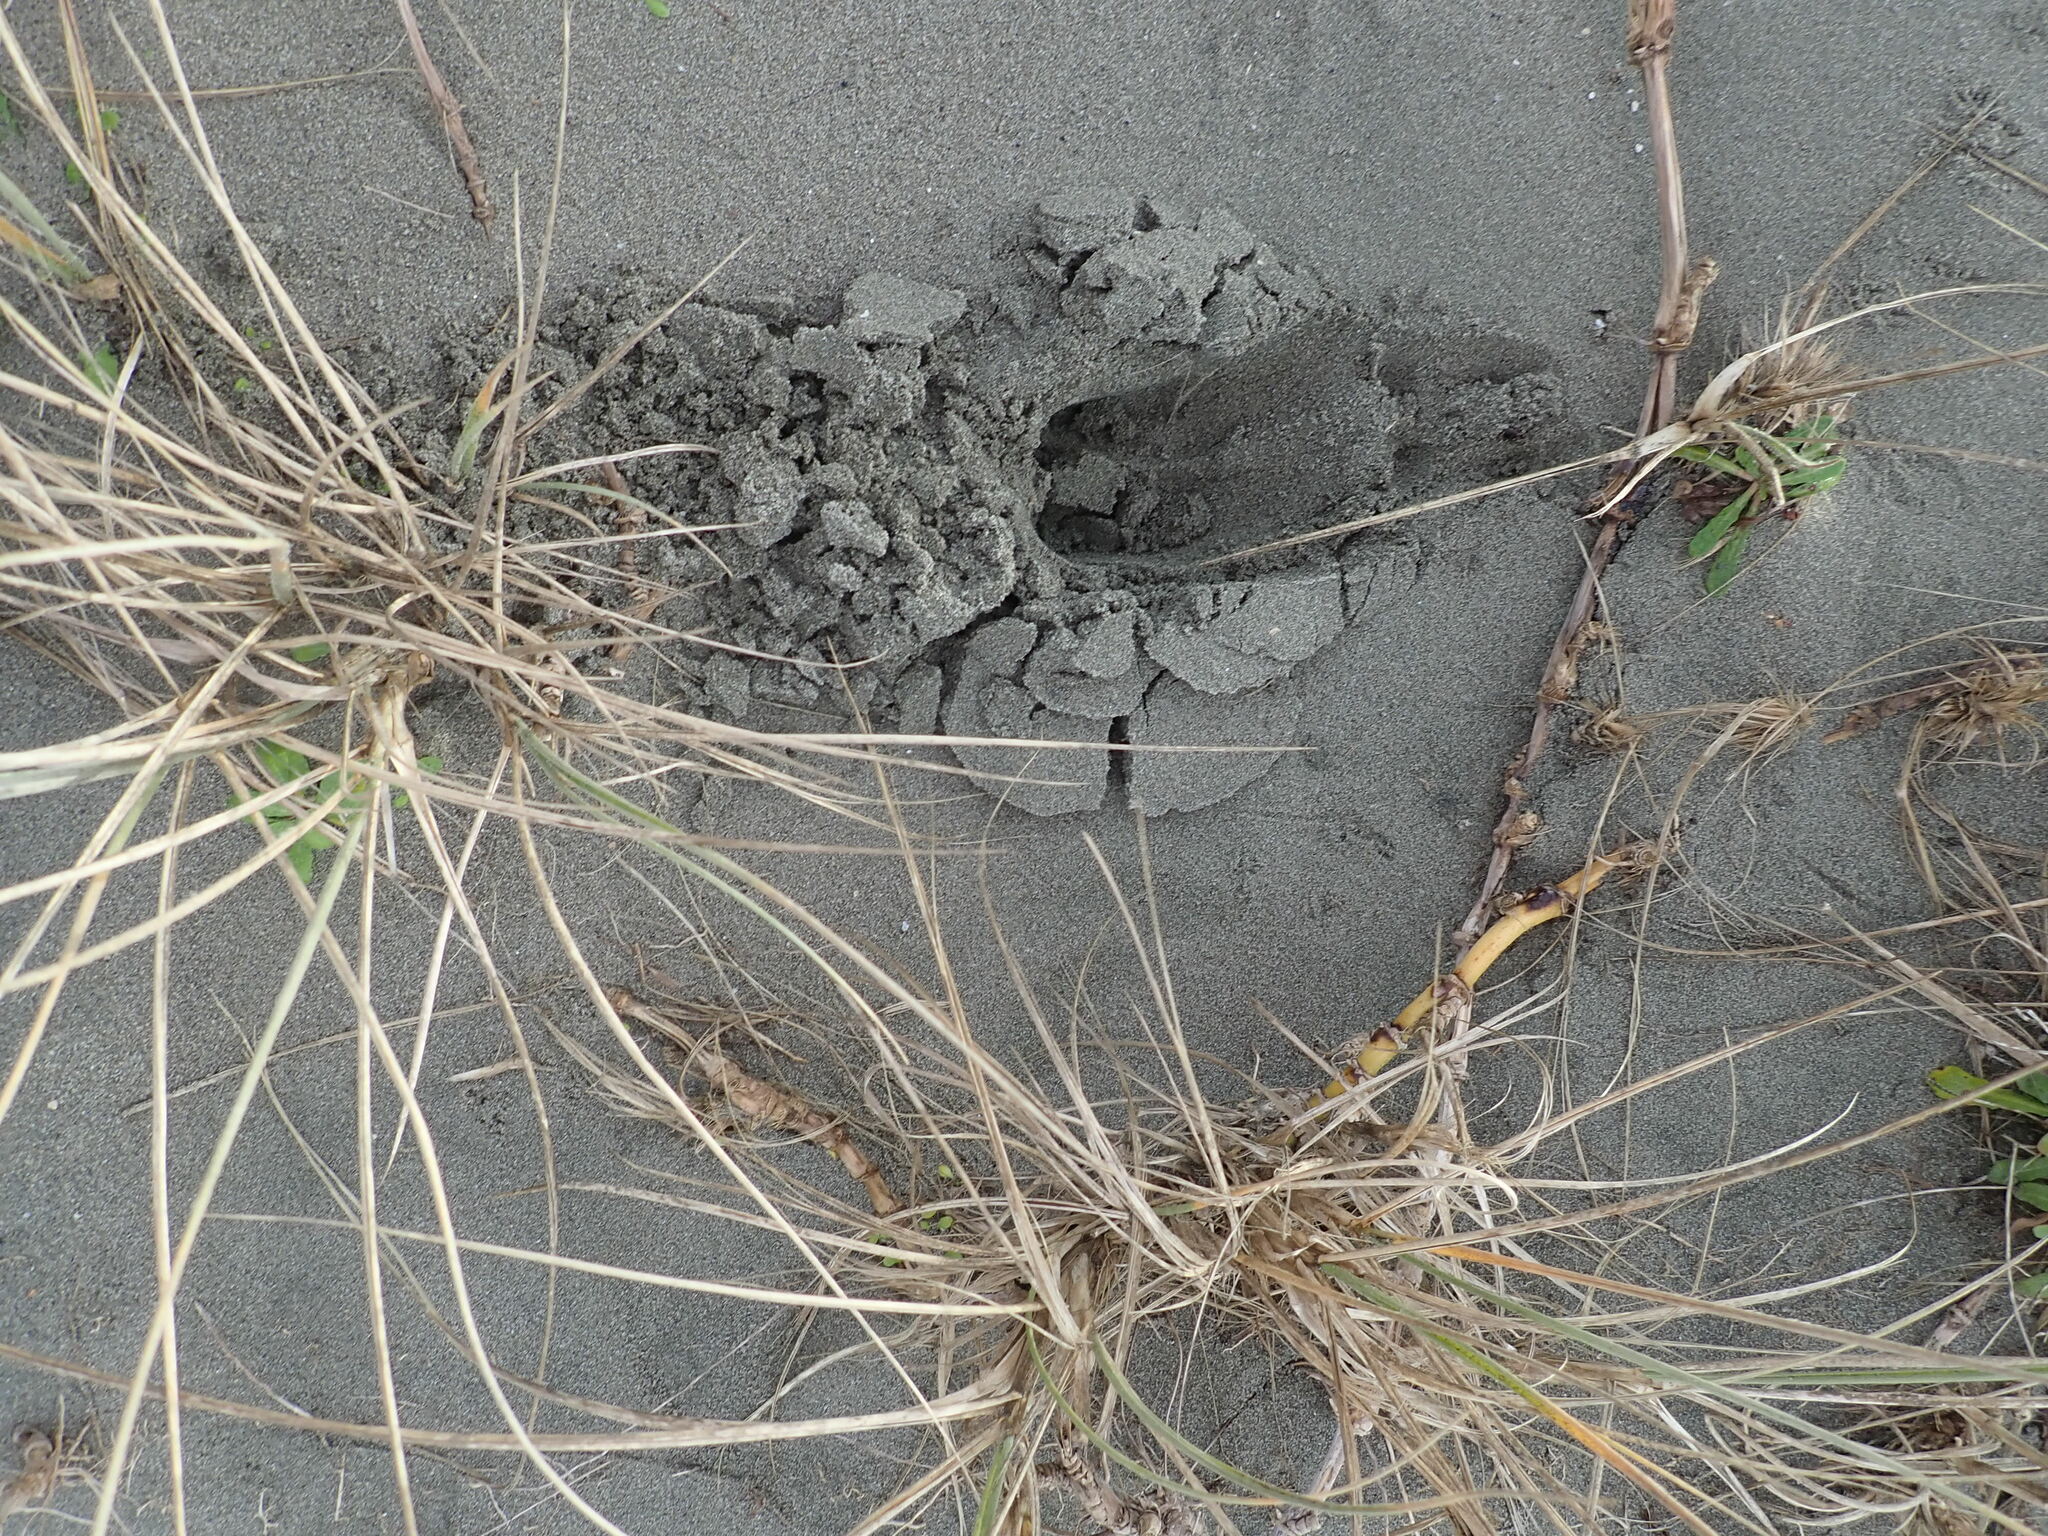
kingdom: Animalia
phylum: Chordata
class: Mammalia
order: Artiodactyla
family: Cervidae
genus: Rusa
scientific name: Rusa unicolor
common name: Sambar
